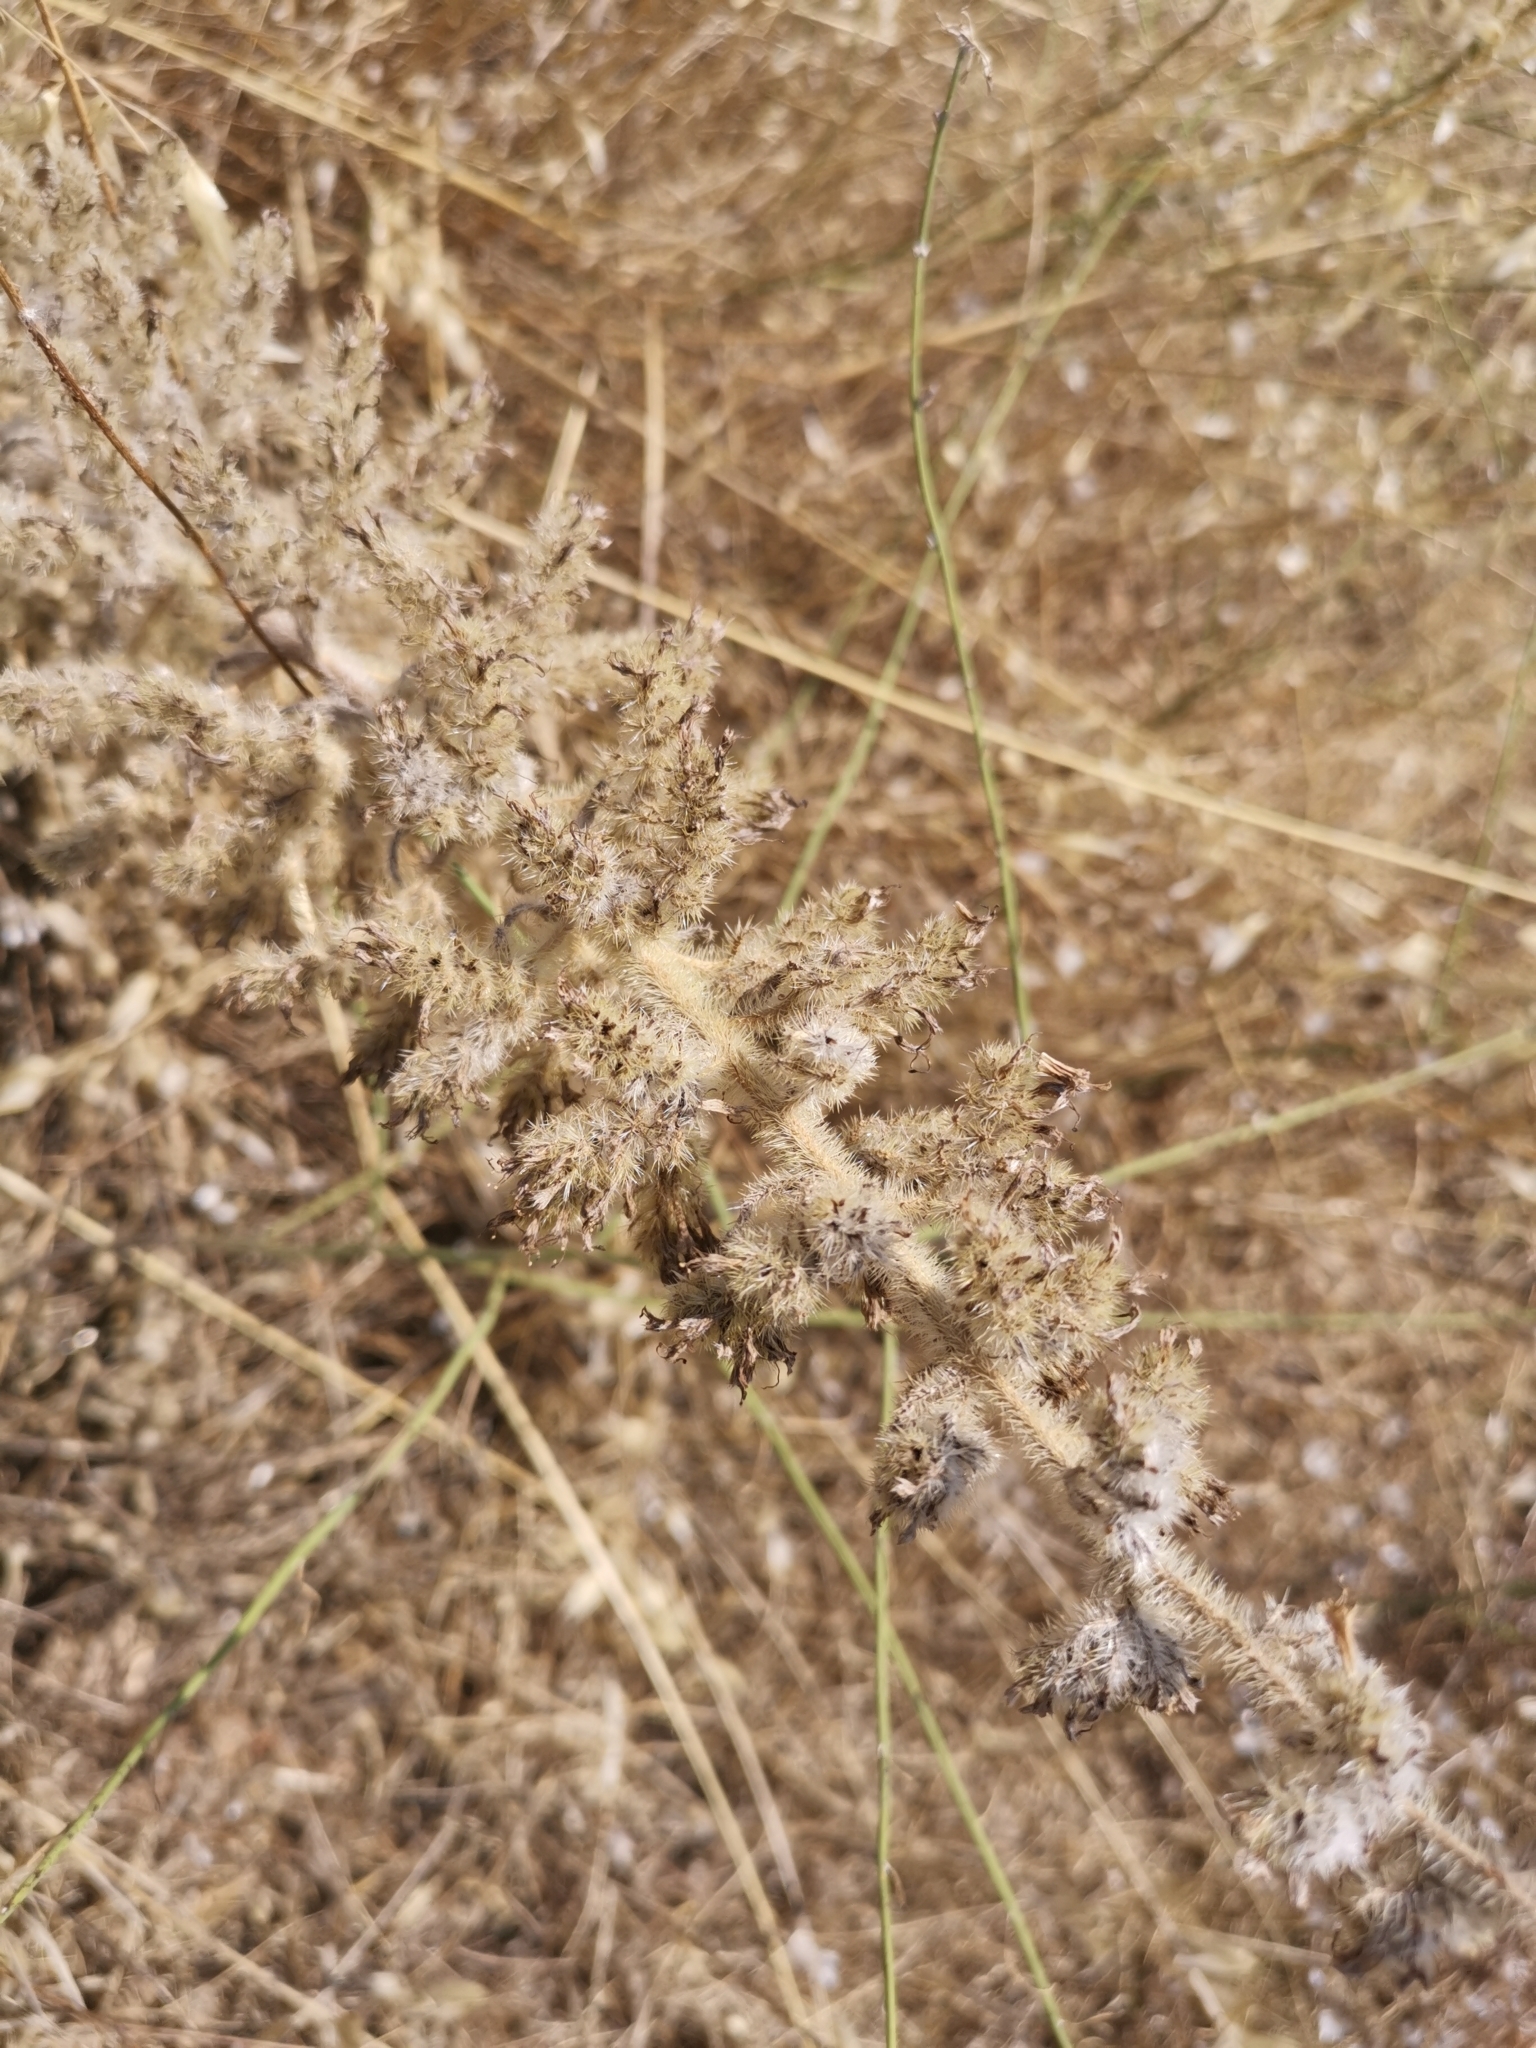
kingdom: Plantae
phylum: Tracheophyta
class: Magnoliopsida
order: Boraginales
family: Boraginaceae
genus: Echium
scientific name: Echium italicum
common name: Italian viper's bugloss
